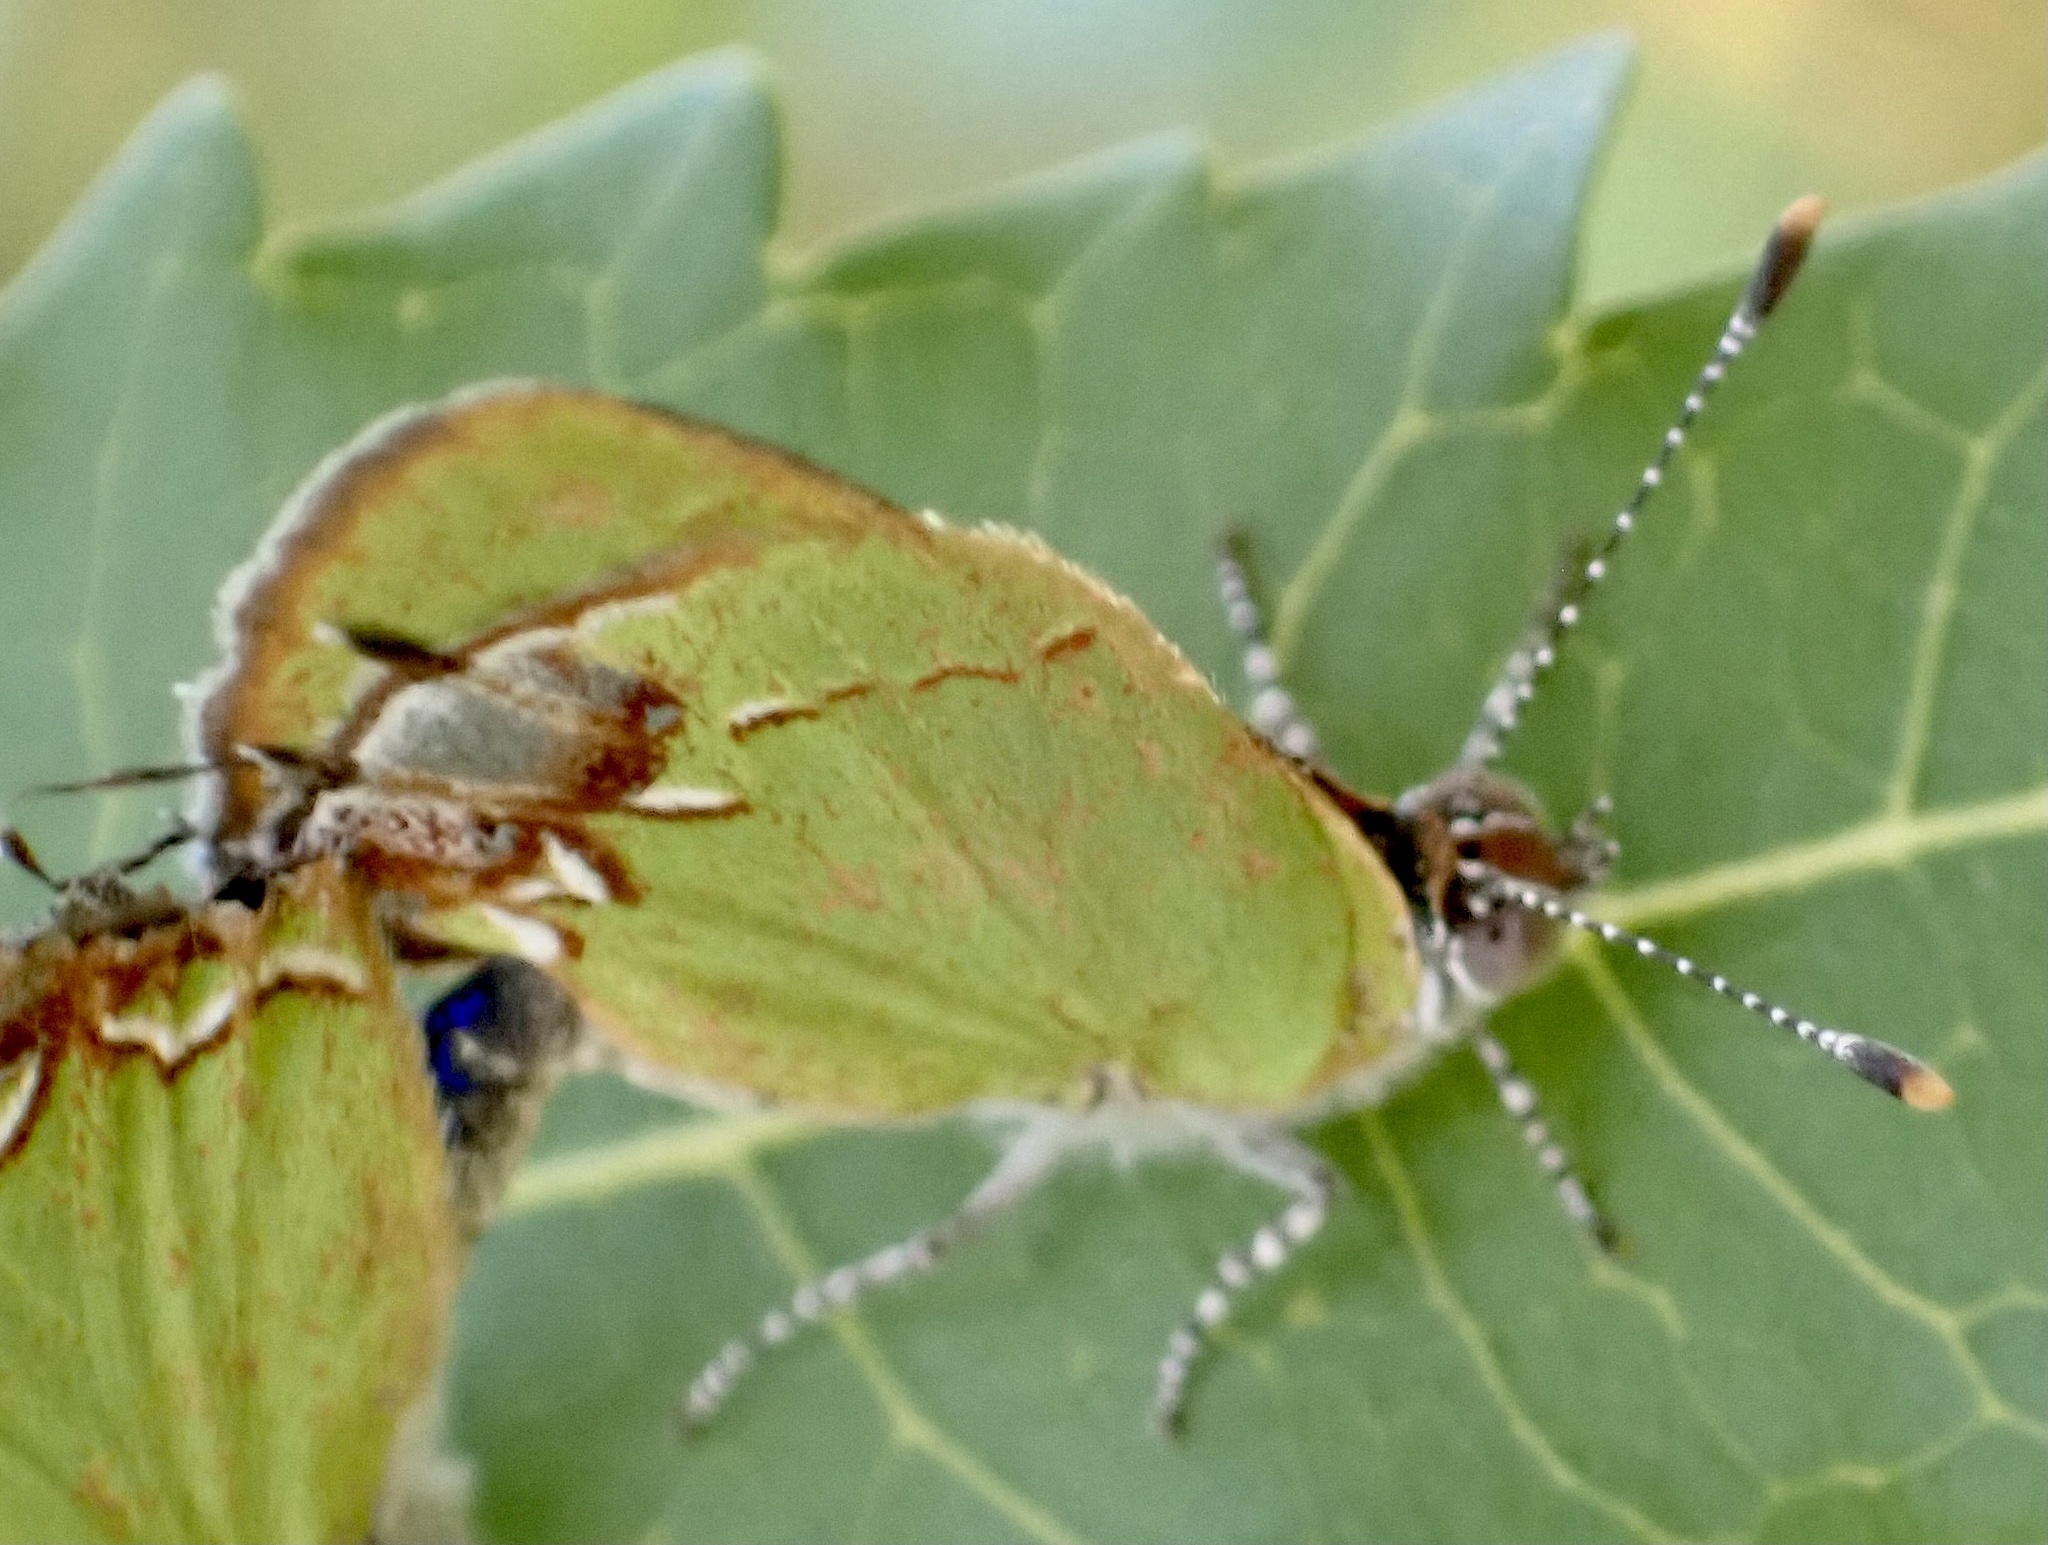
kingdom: Animalia
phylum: Arthropoda
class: Insecta
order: Lepidoptera
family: Lycaenidae
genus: Chlorostrymon
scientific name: Chlorostrymon telea
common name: Telea hairstreak
